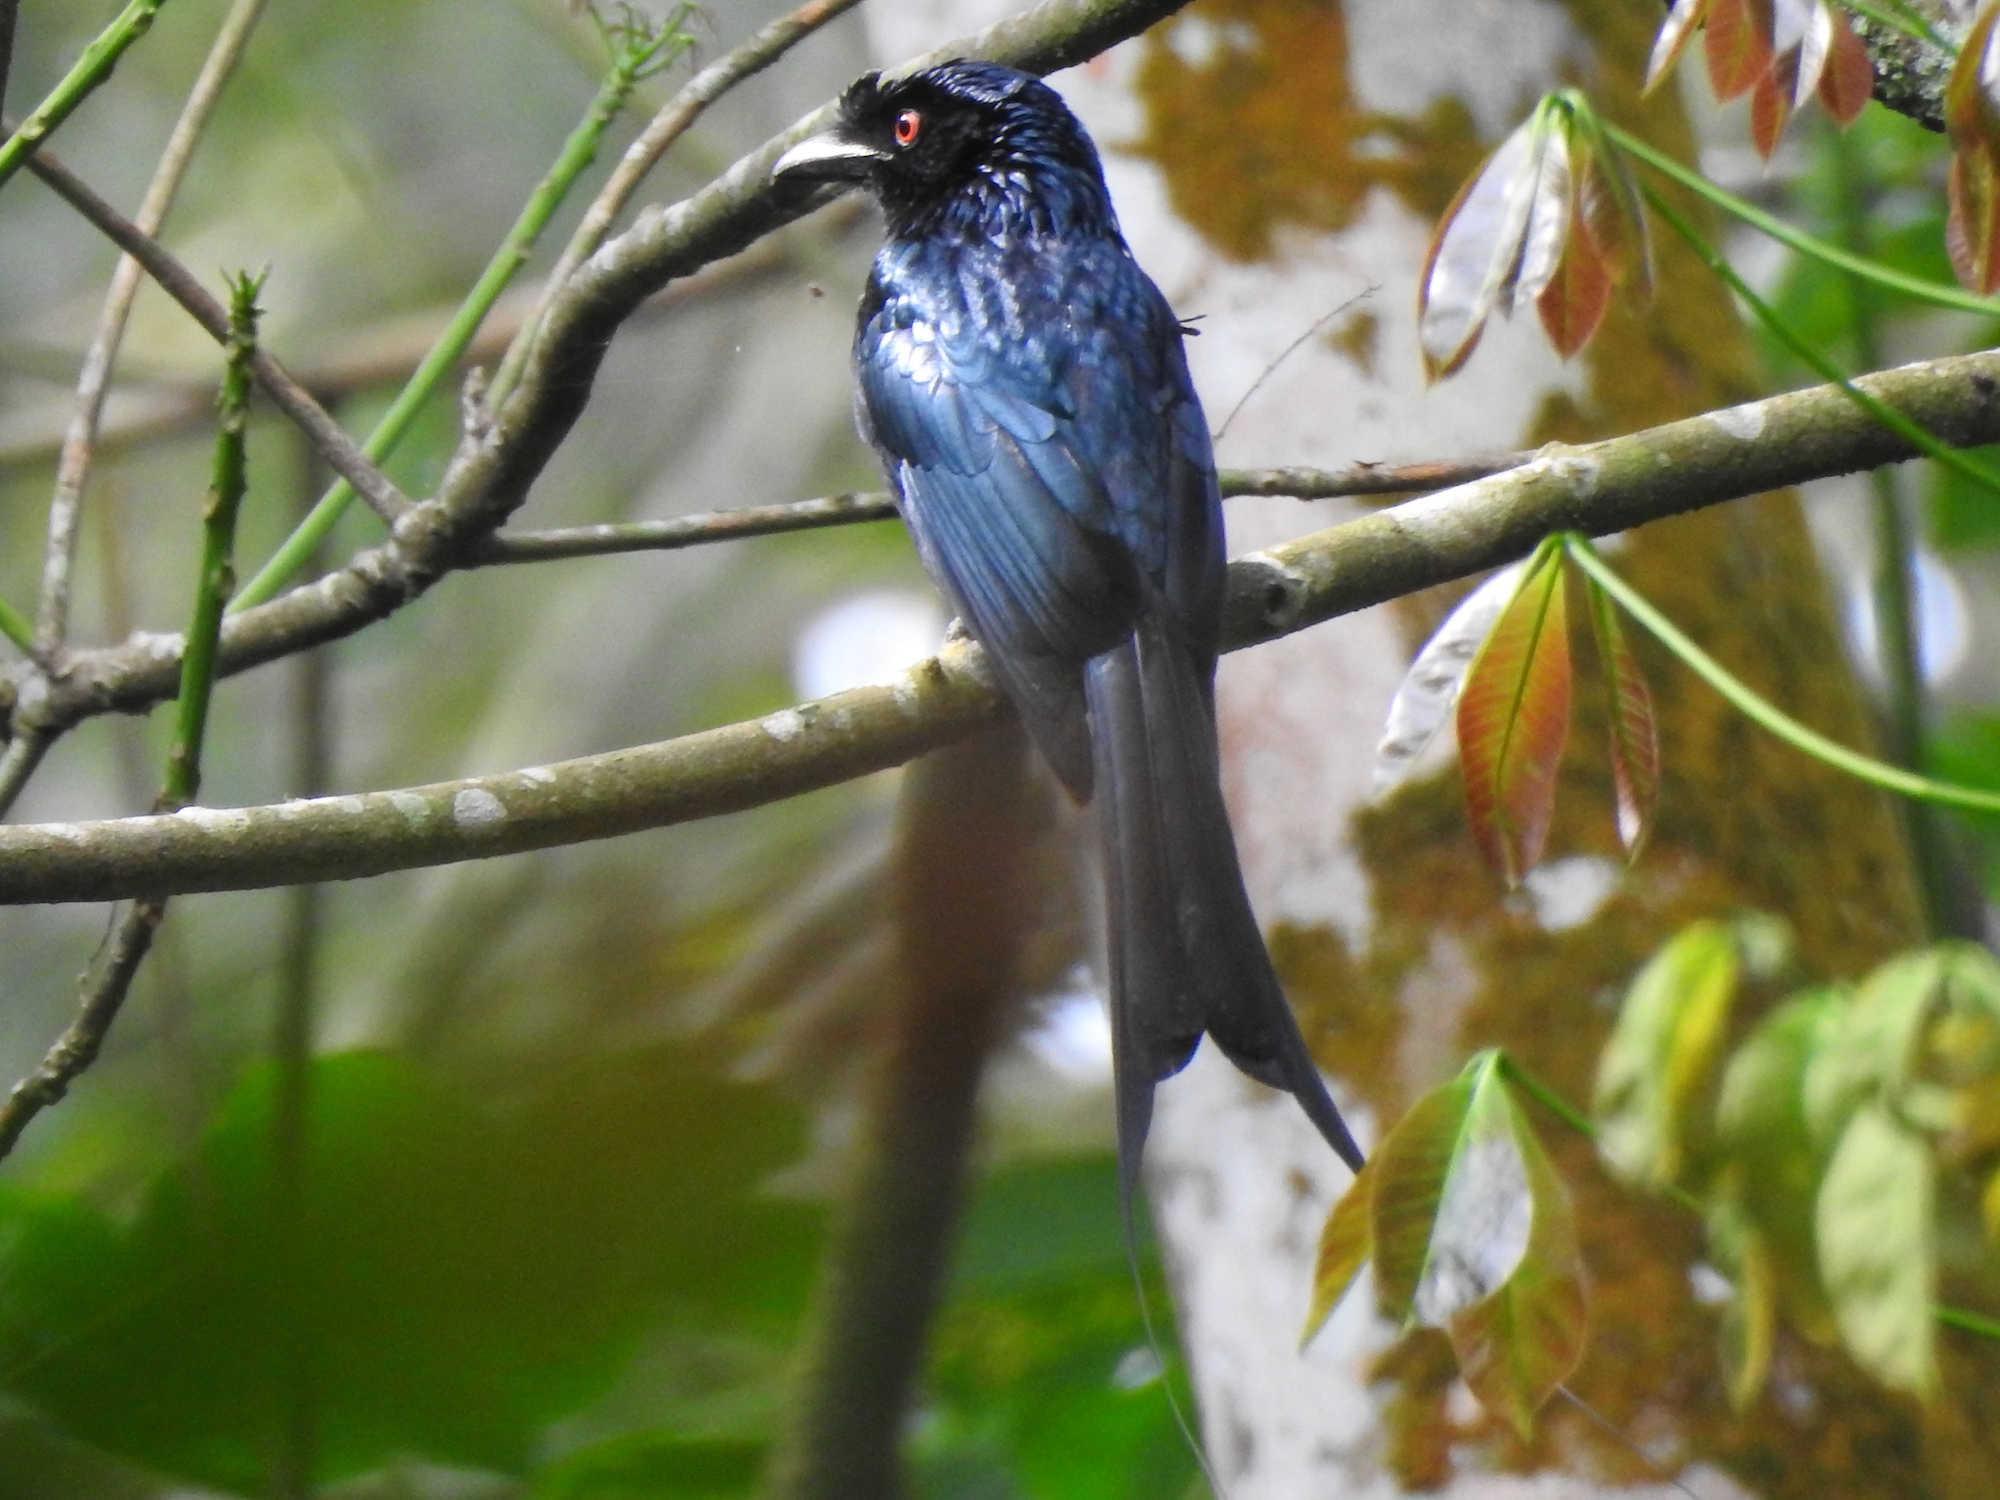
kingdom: Animalia
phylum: Chordata
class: Aves
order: Passeriformes
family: Dicruridae
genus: Dicrurus
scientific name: Dicrurus paradiseus
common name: Greater racket-tailed drongo
